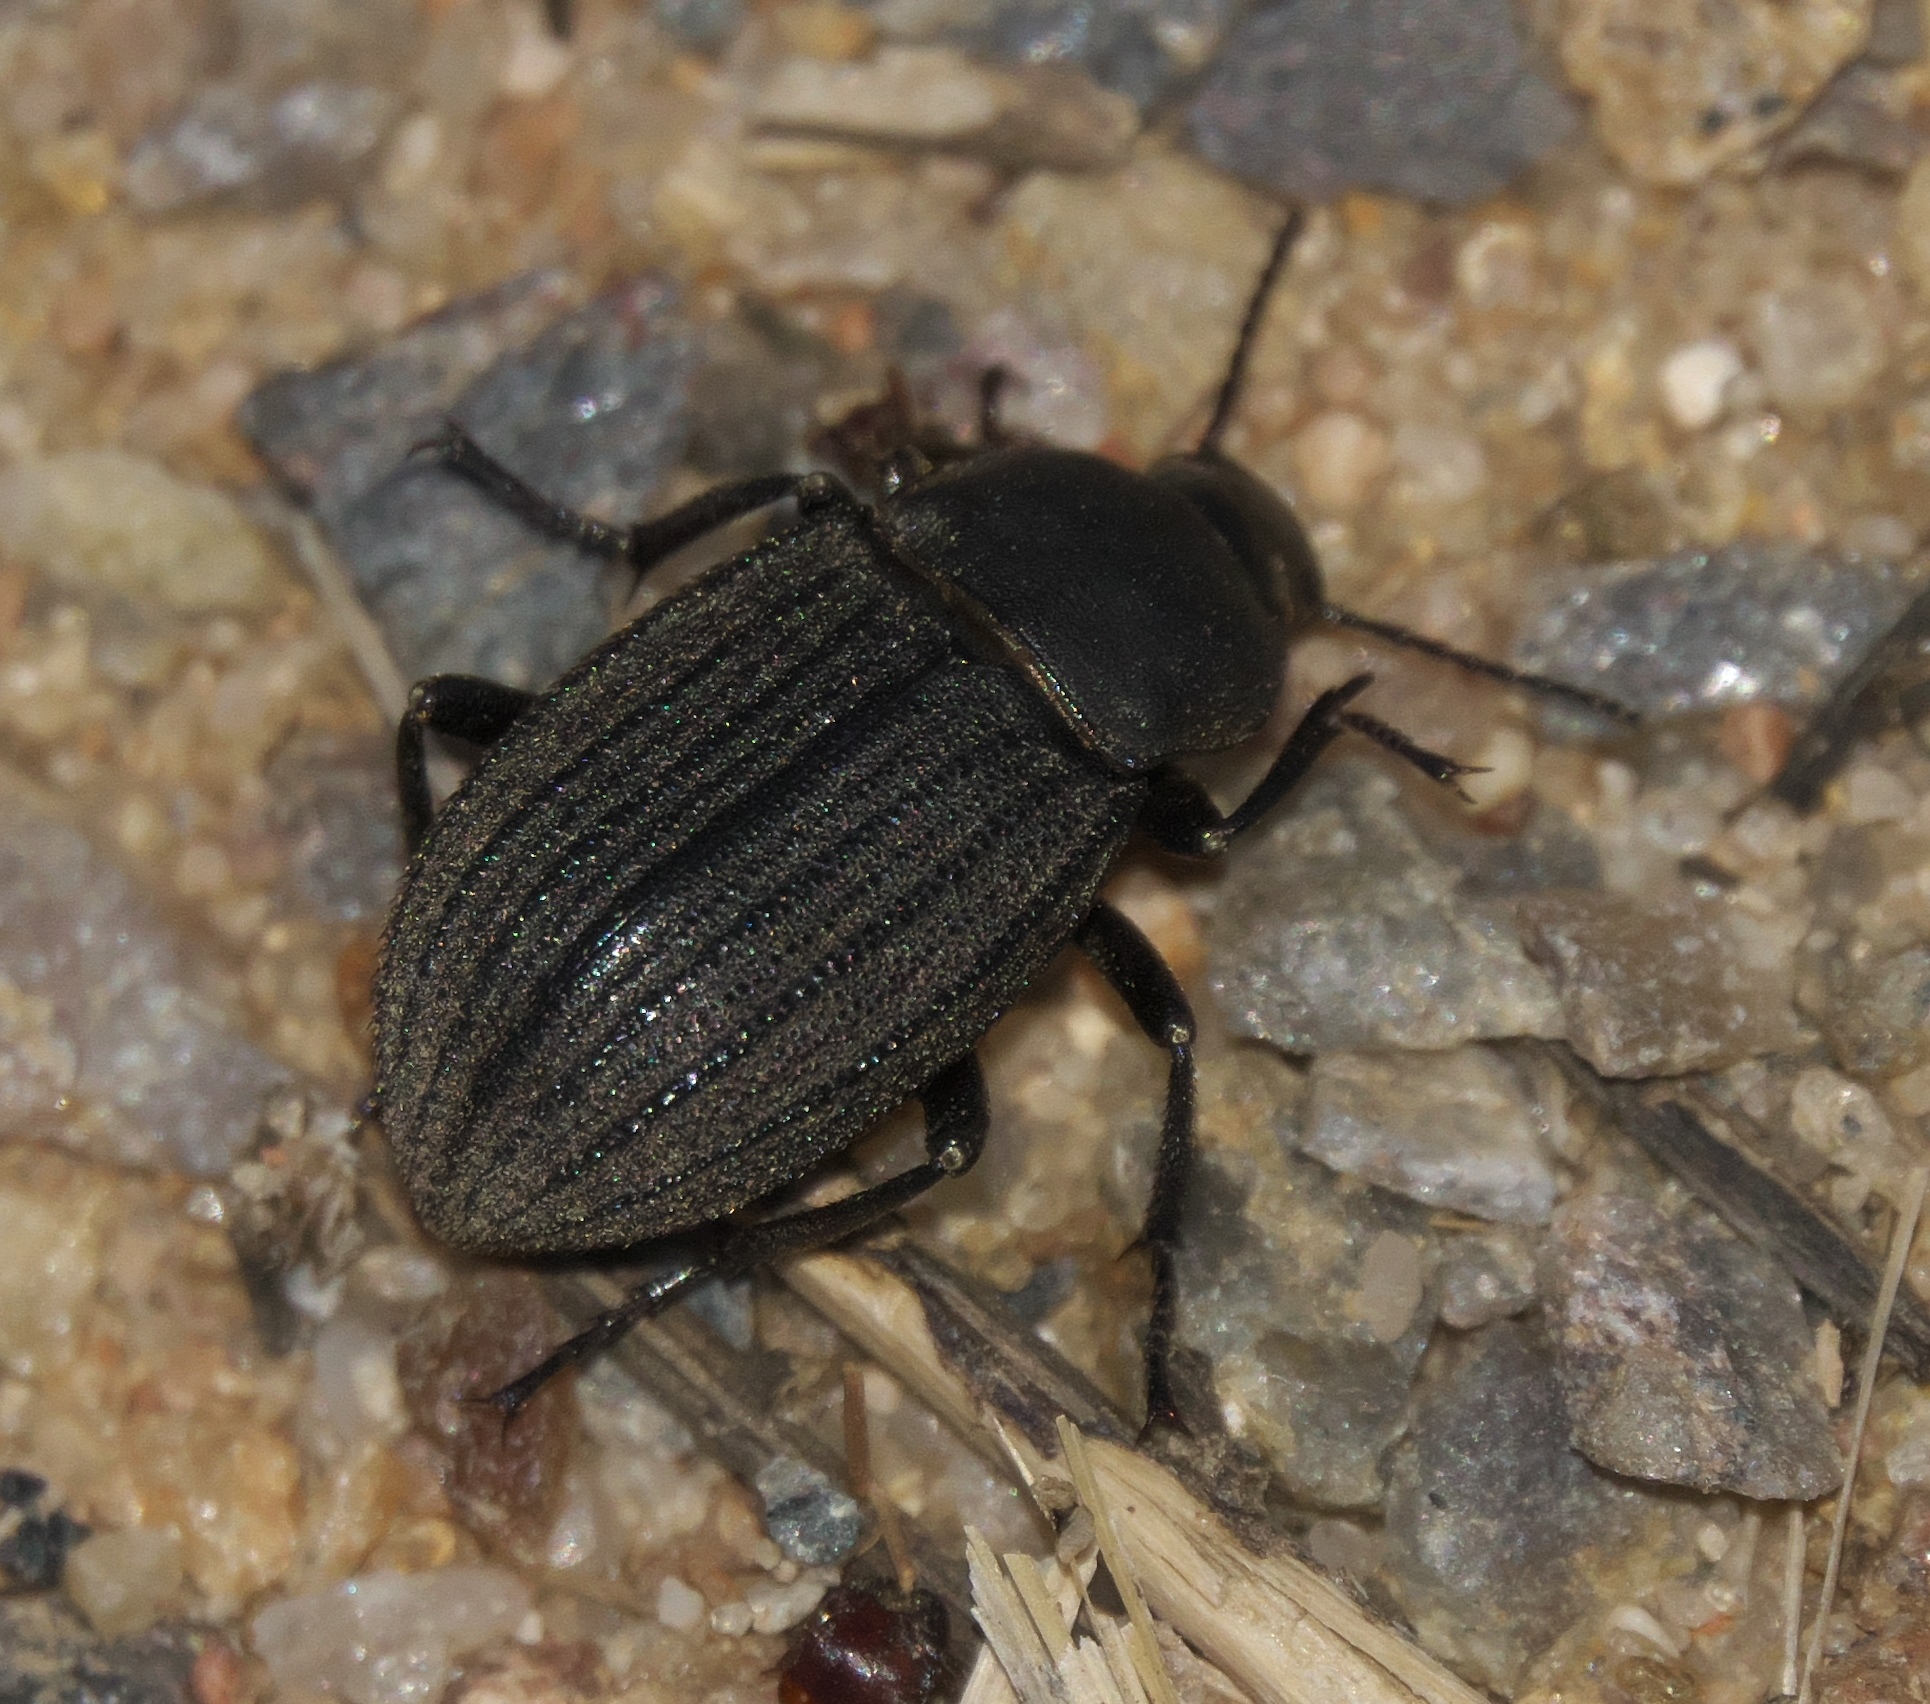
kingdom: Animalia
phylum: Arthropoda
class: Insecta
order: Coleoptera
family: Tenebrionidae
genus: Eleodes
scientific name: Eleodes tricostata
